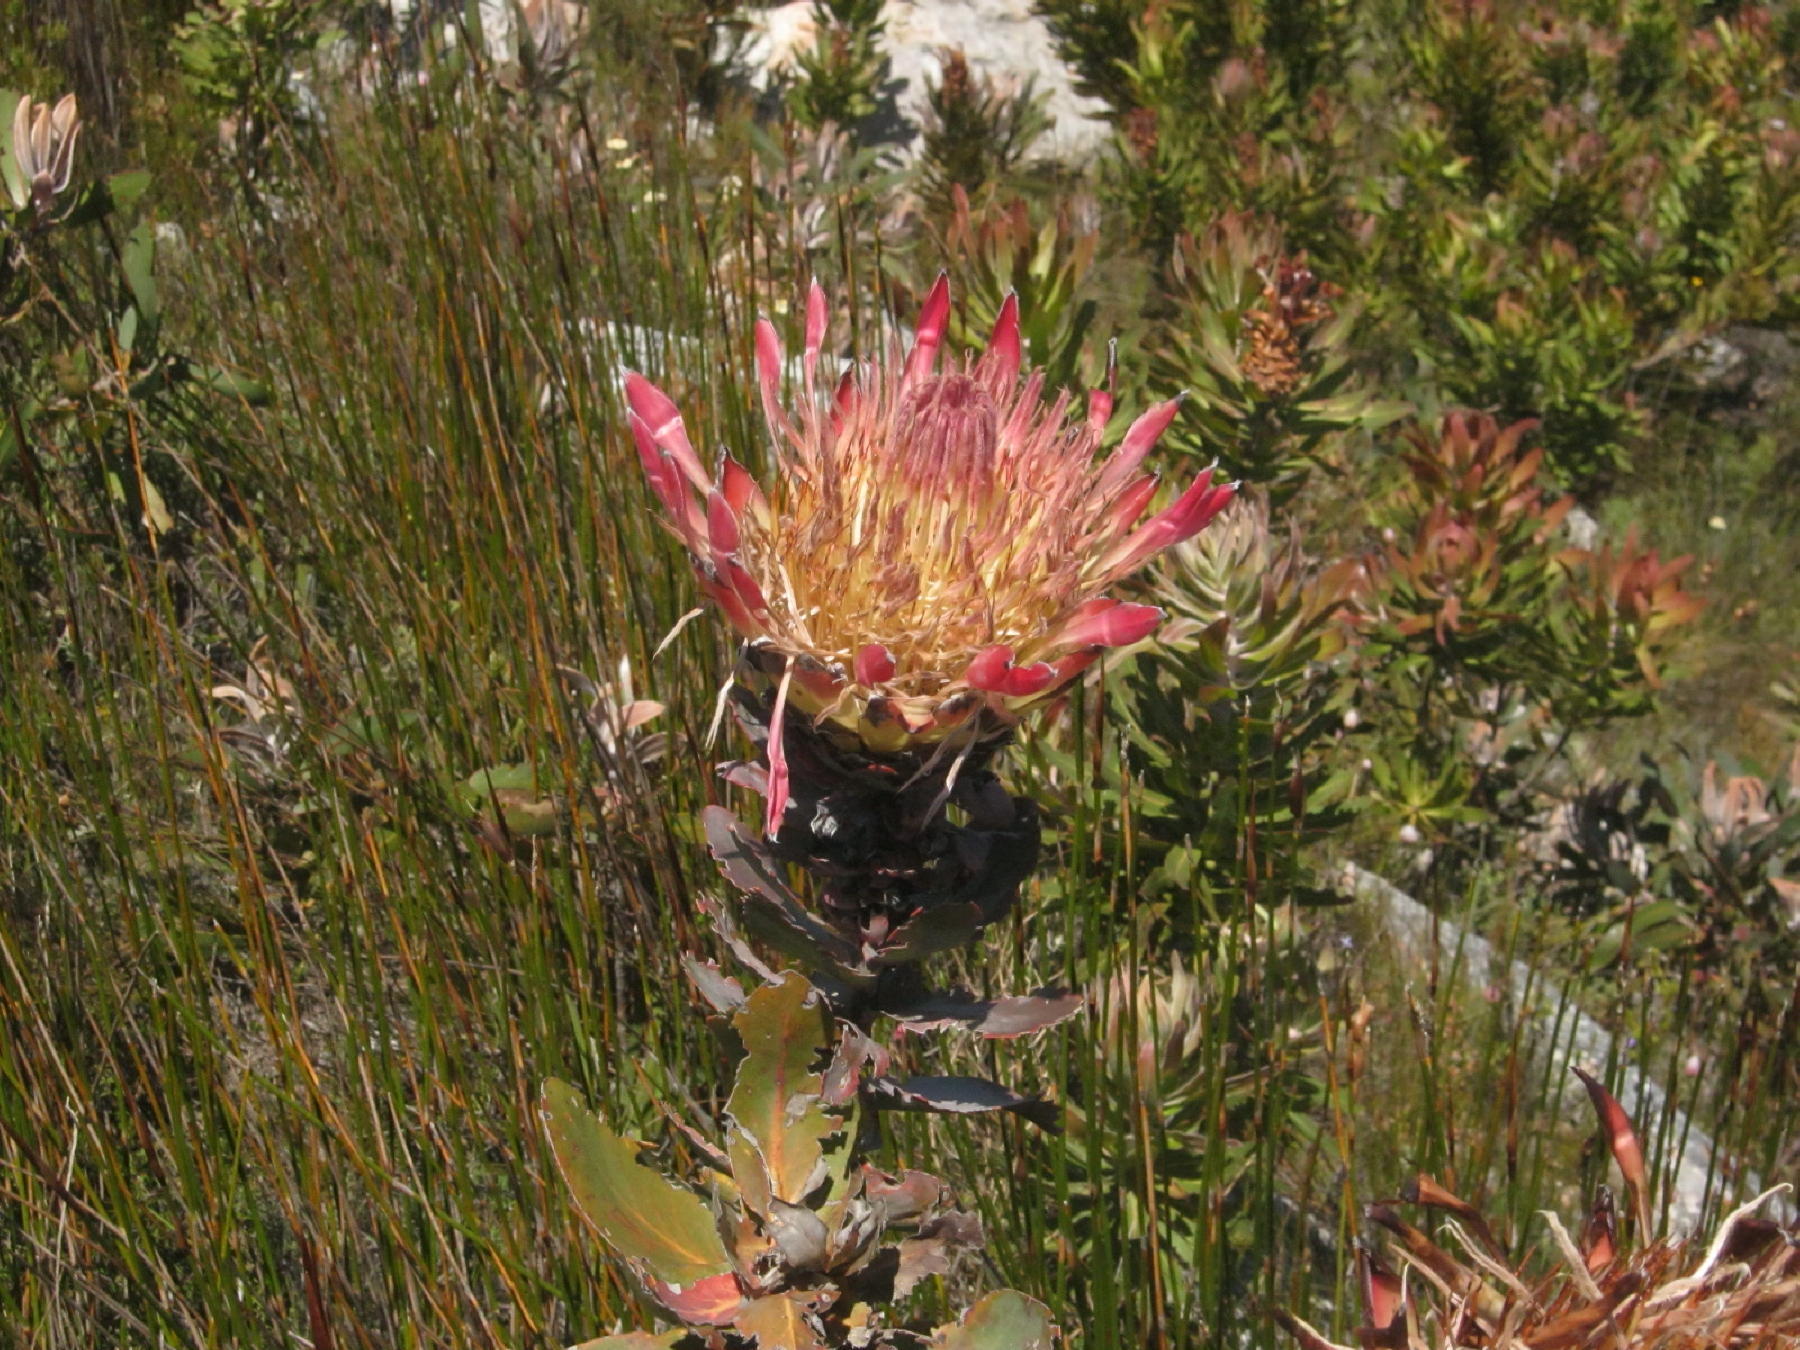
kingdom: Plantae
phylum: Tracheophyta
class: Magnoliopsida
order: Proteales
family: Proteaceae
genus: Protea
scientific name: Protea eximia
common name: Broad-leaved sugarbush
